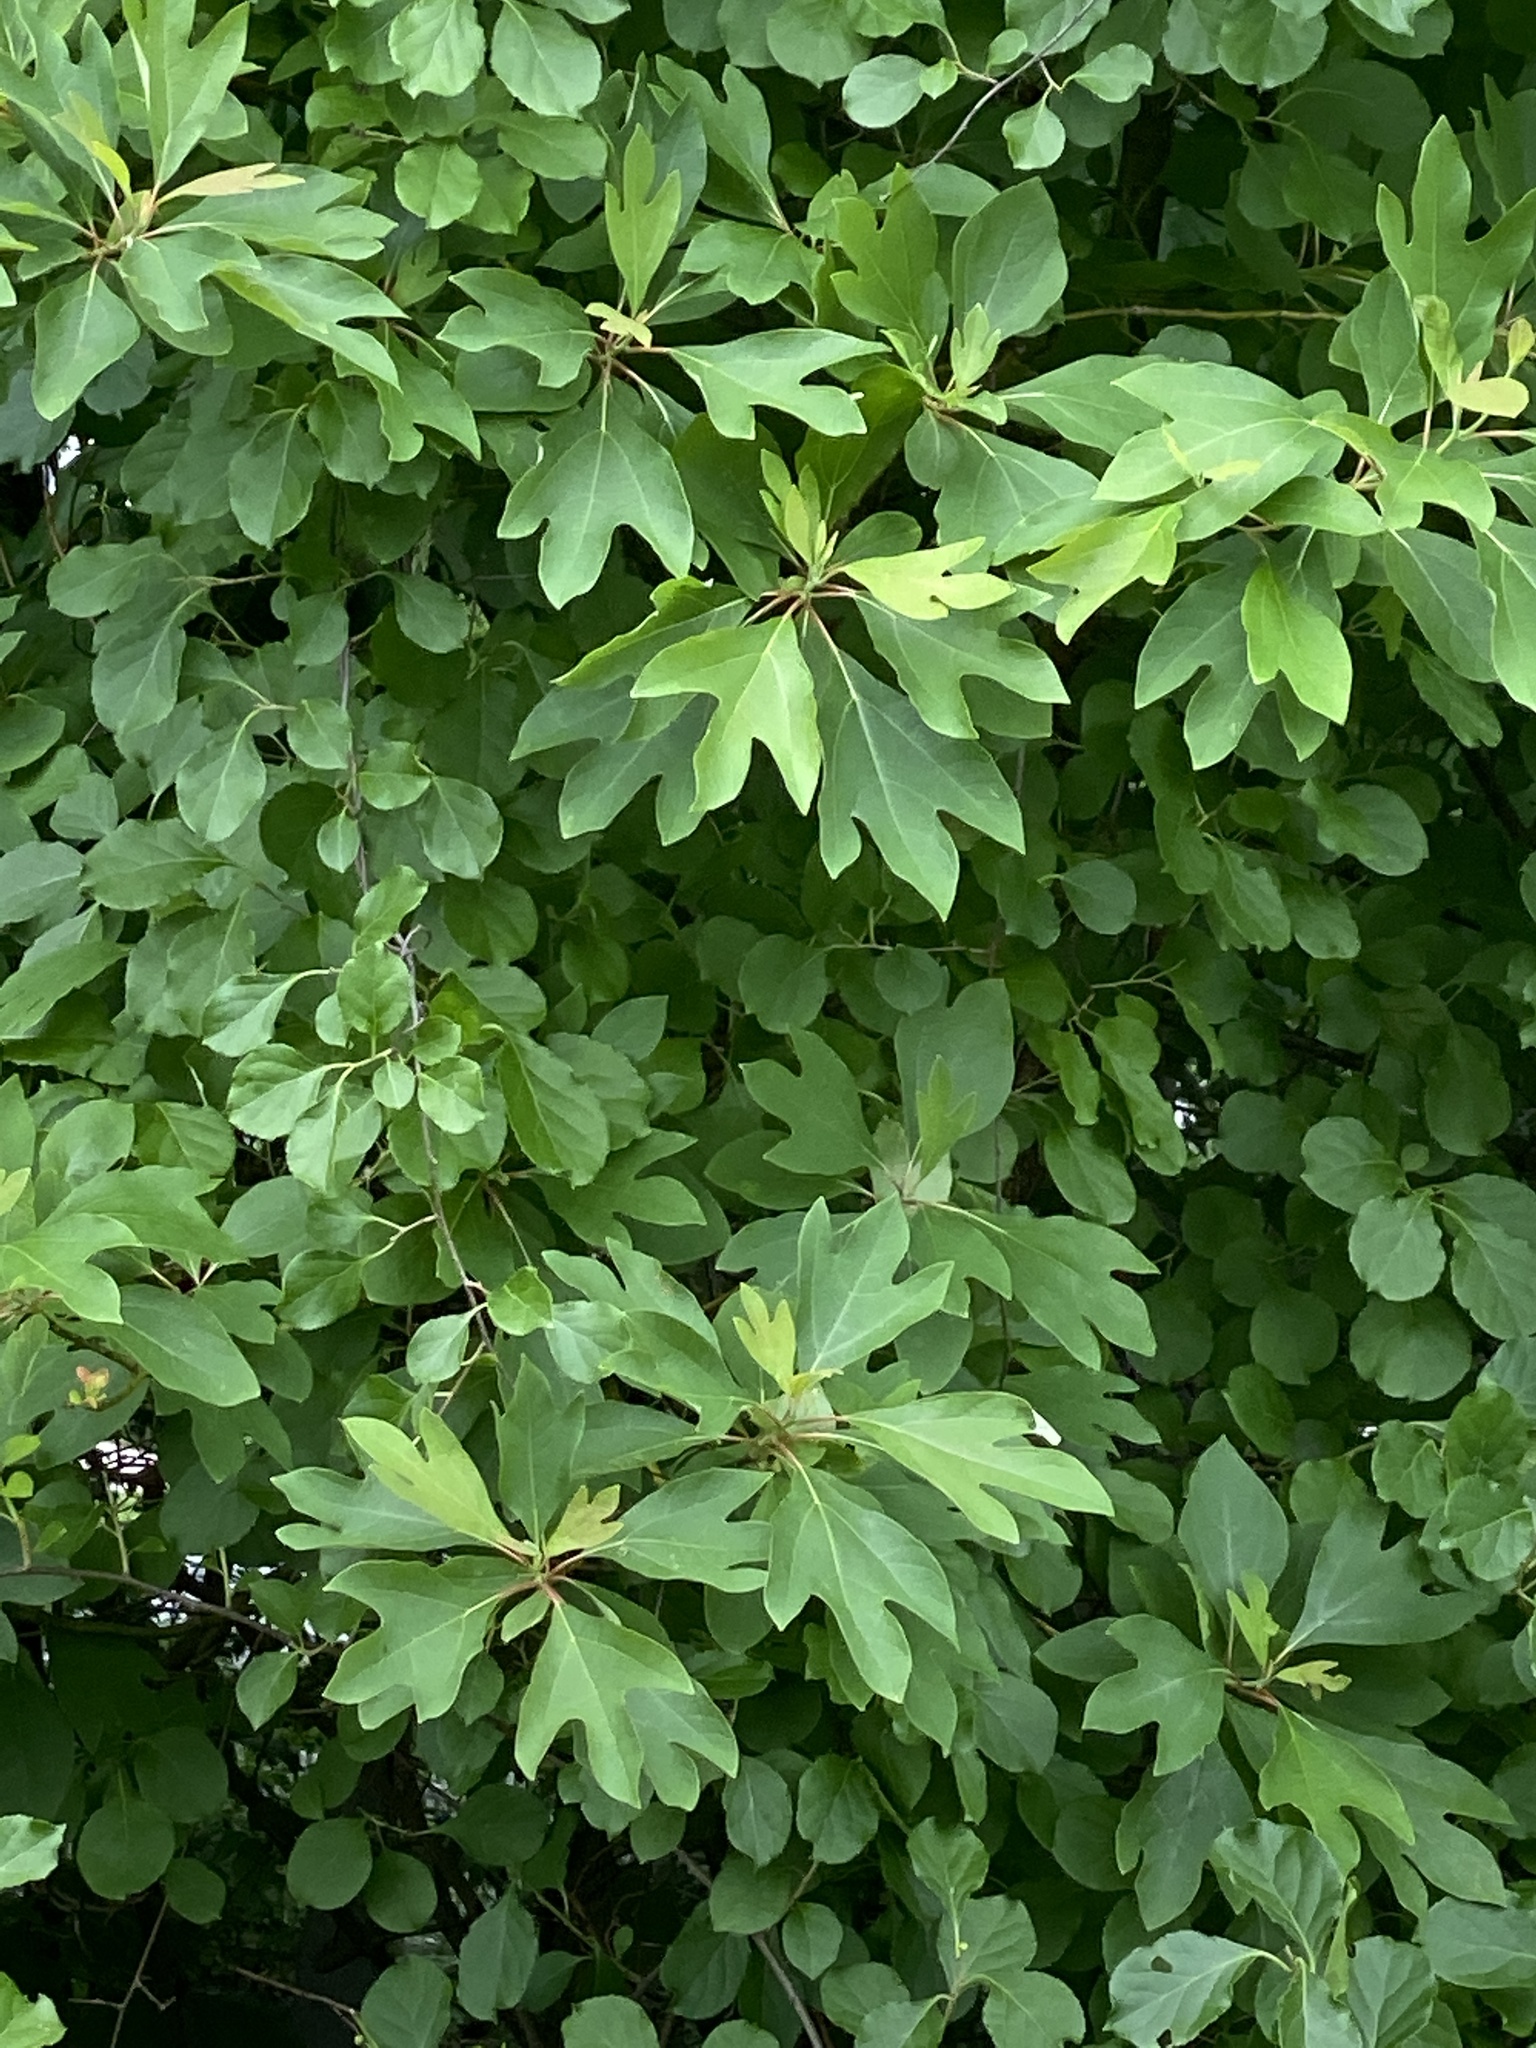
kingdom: Plantae
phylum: Tracheophyta
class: Magnoliopsida
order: Laurales
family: Lauraceae
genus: Sassafras
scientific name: Sassafras albidum
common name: Sassafras
